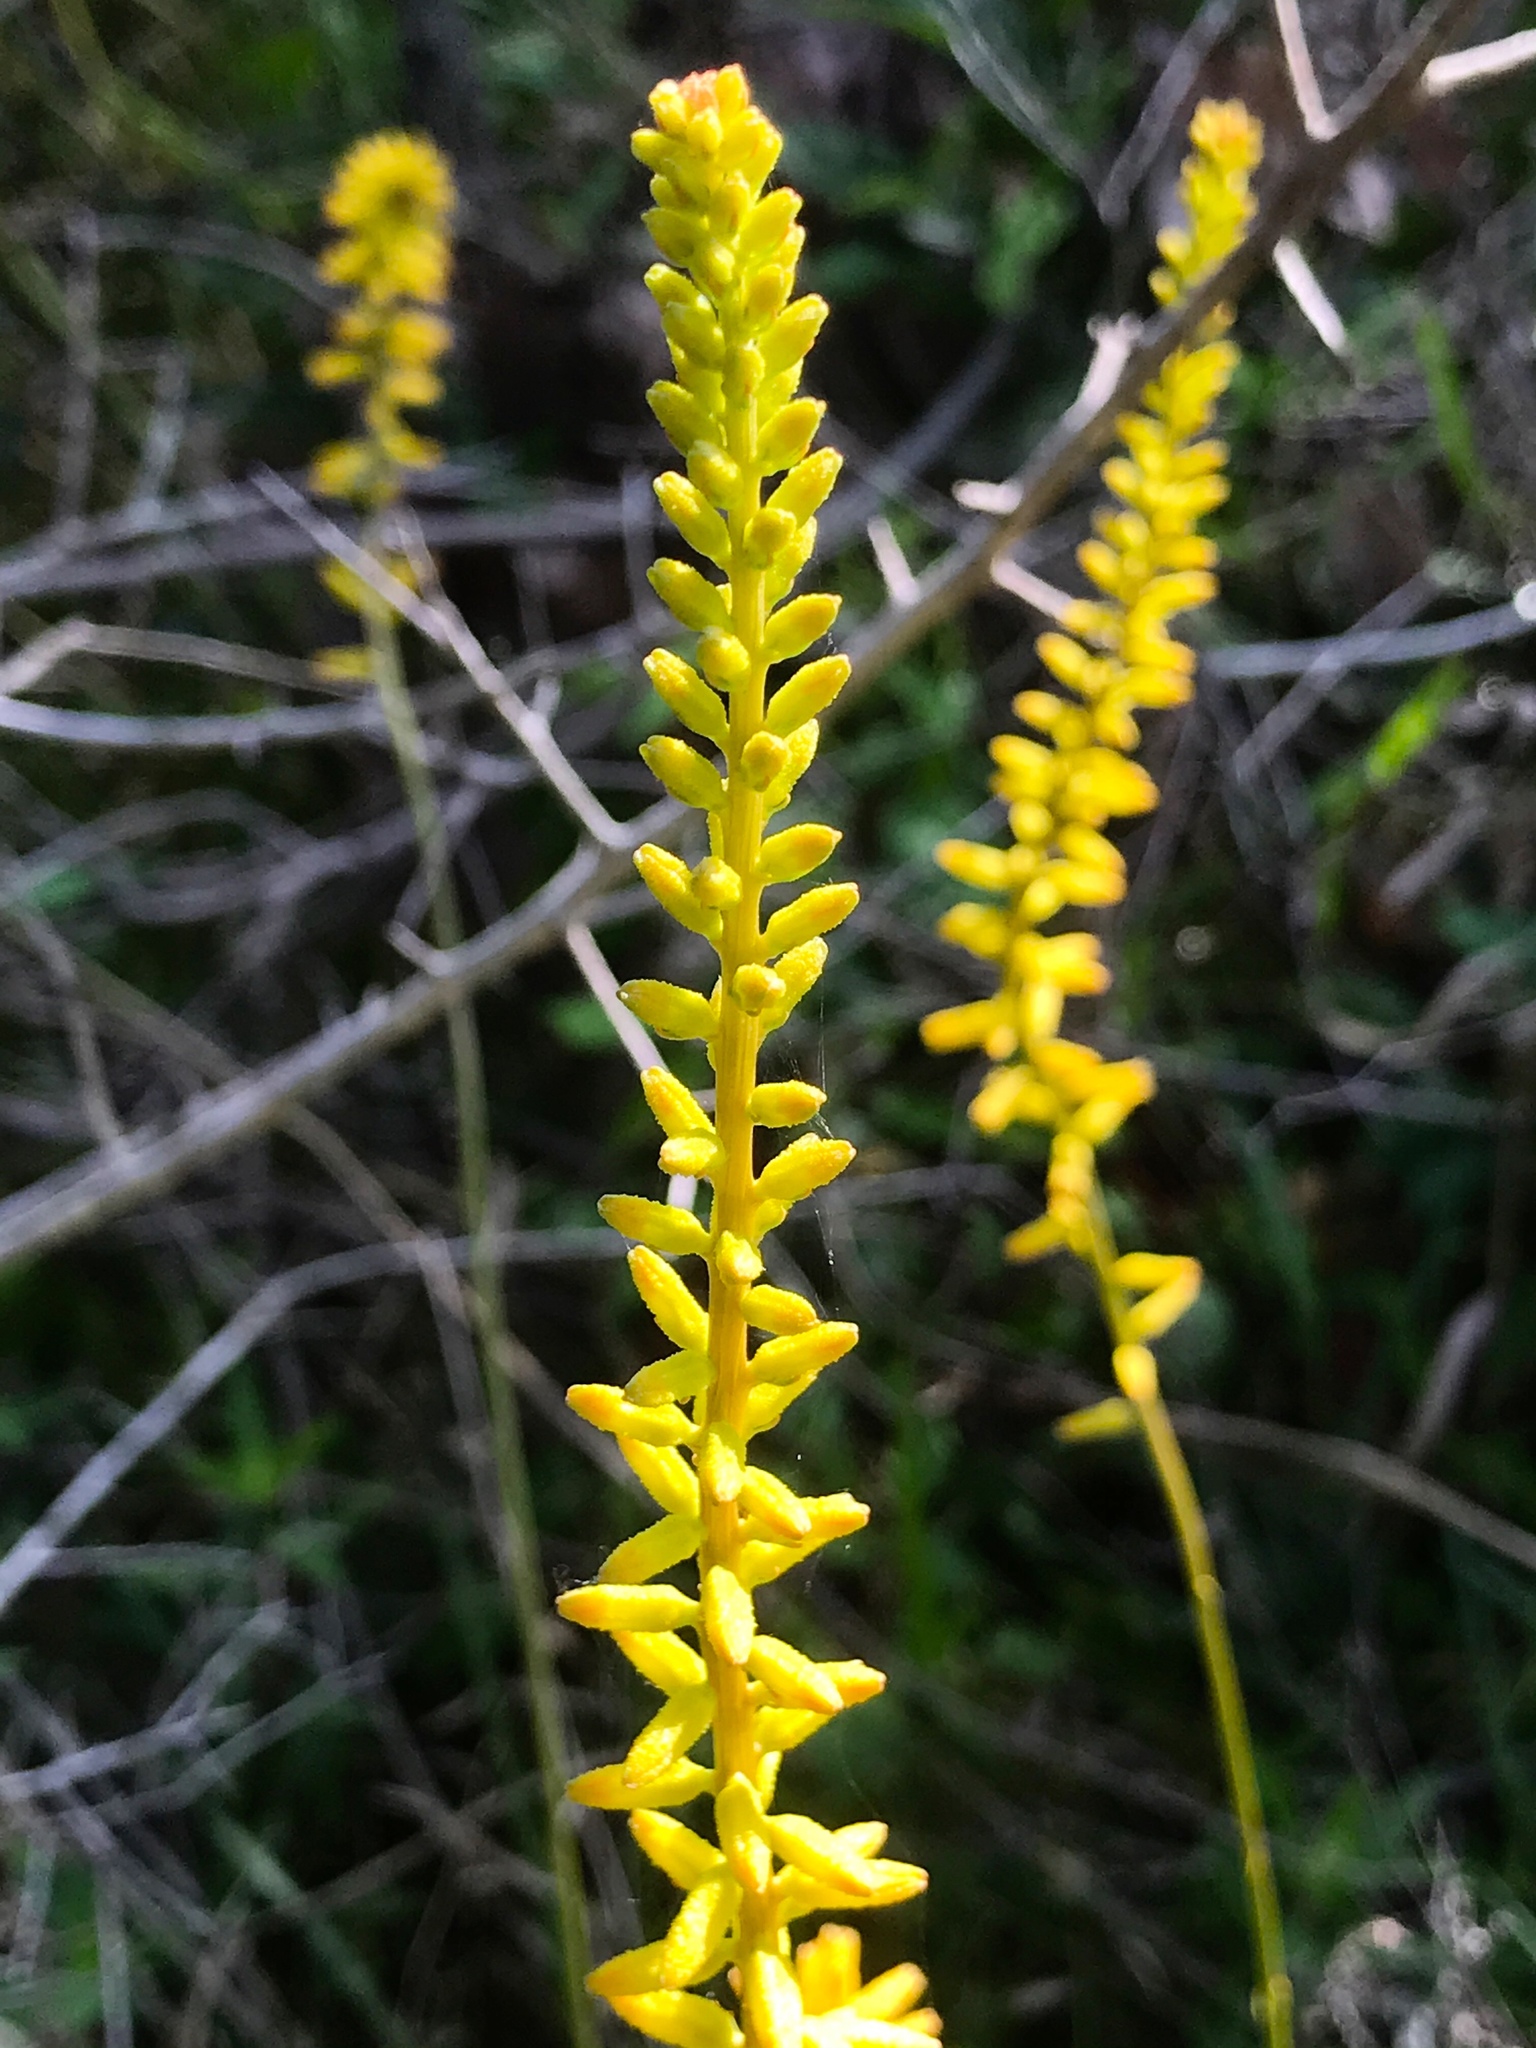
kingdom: Plantae
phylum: Tracheophyta
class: Liliopsida
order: Dioscoreales
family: Nartheciaceae
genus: Aletris
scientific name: Aletris lutea
